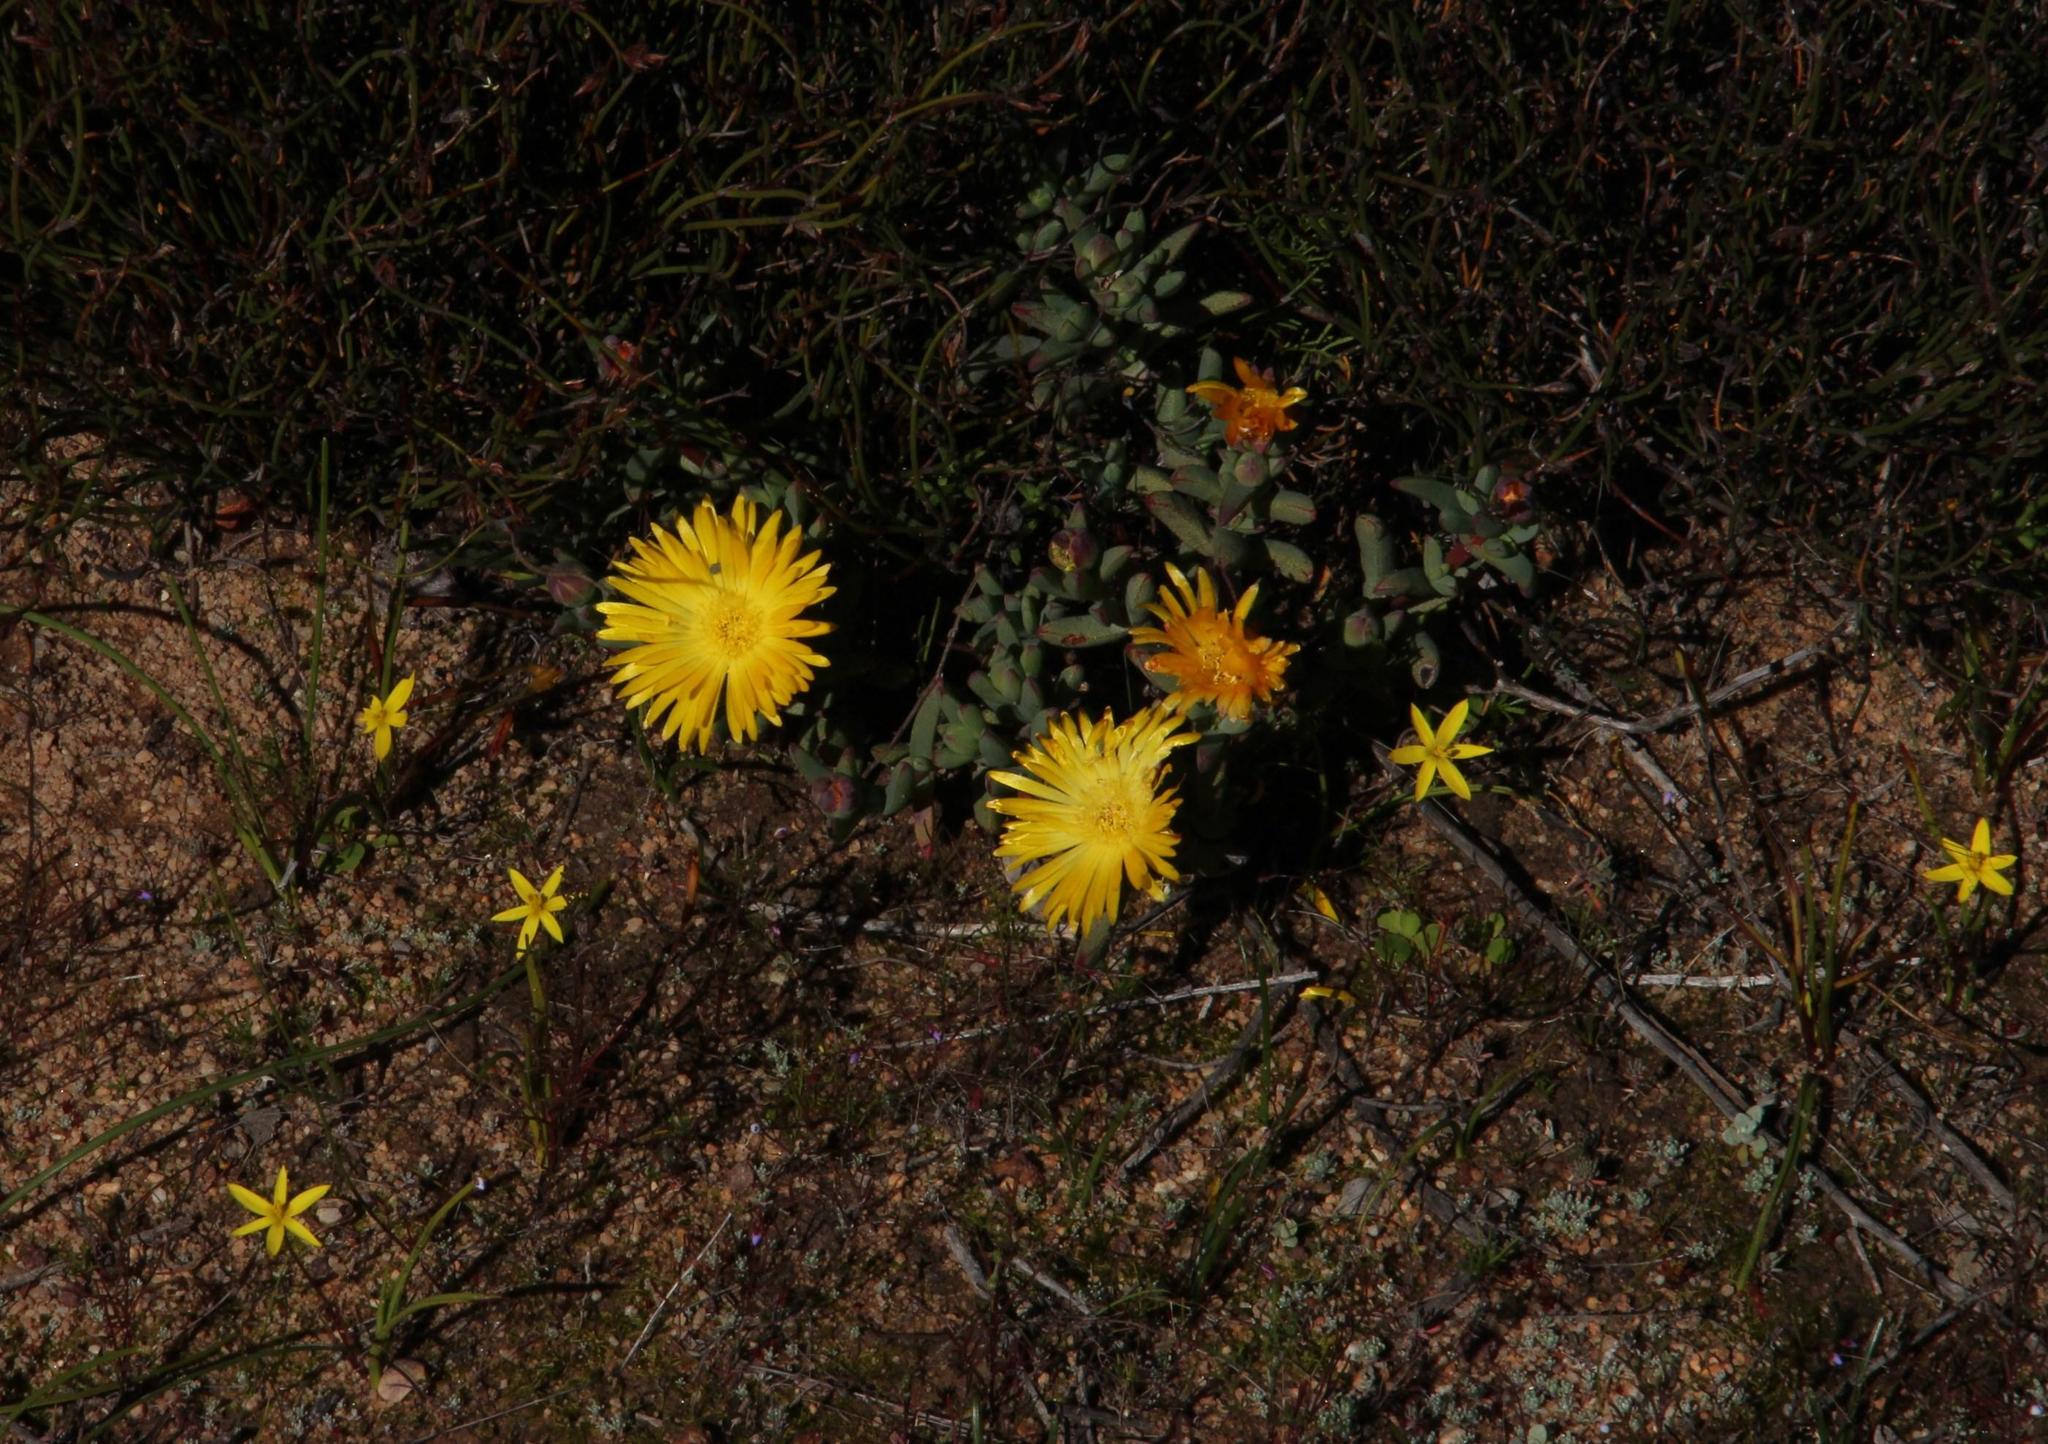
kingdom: Plantae
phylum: Tracheophyta
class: Magnoliopsida
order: Caryophyllales
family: Aizoaceae
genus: Lampranthus
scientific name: Lampranthus glaucus
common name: Noonflower
